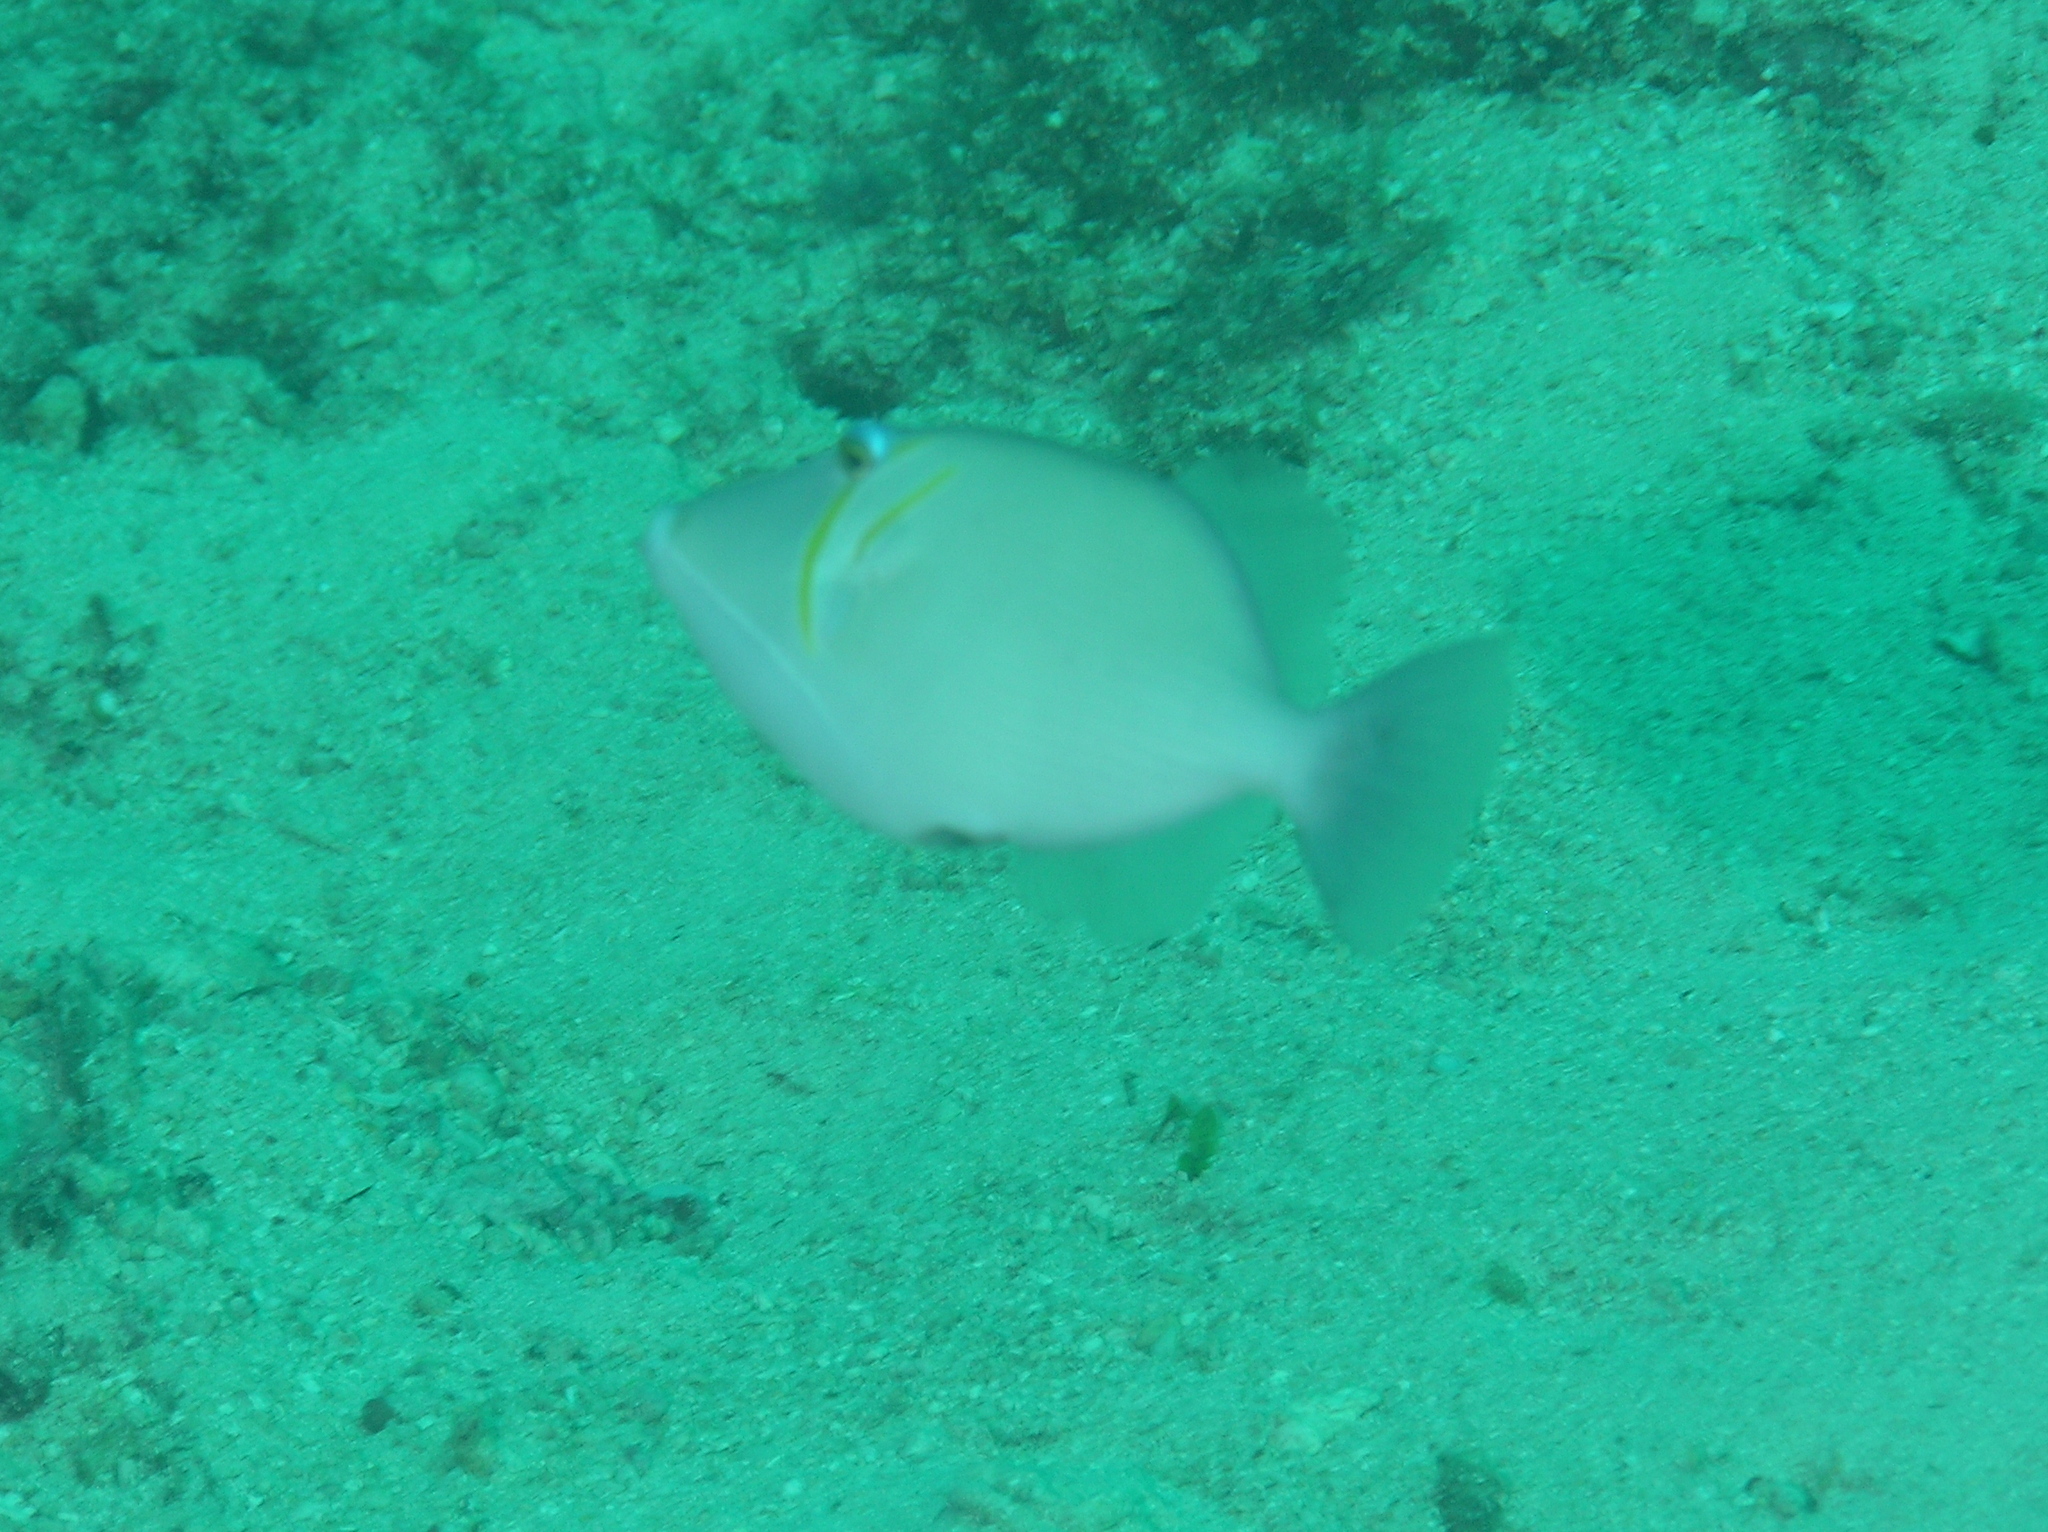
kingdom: Animalia
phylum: Chordata
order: Tetraodontiformes
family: Balistidae
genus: Sufflamen
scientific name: Sufflamen bursa
